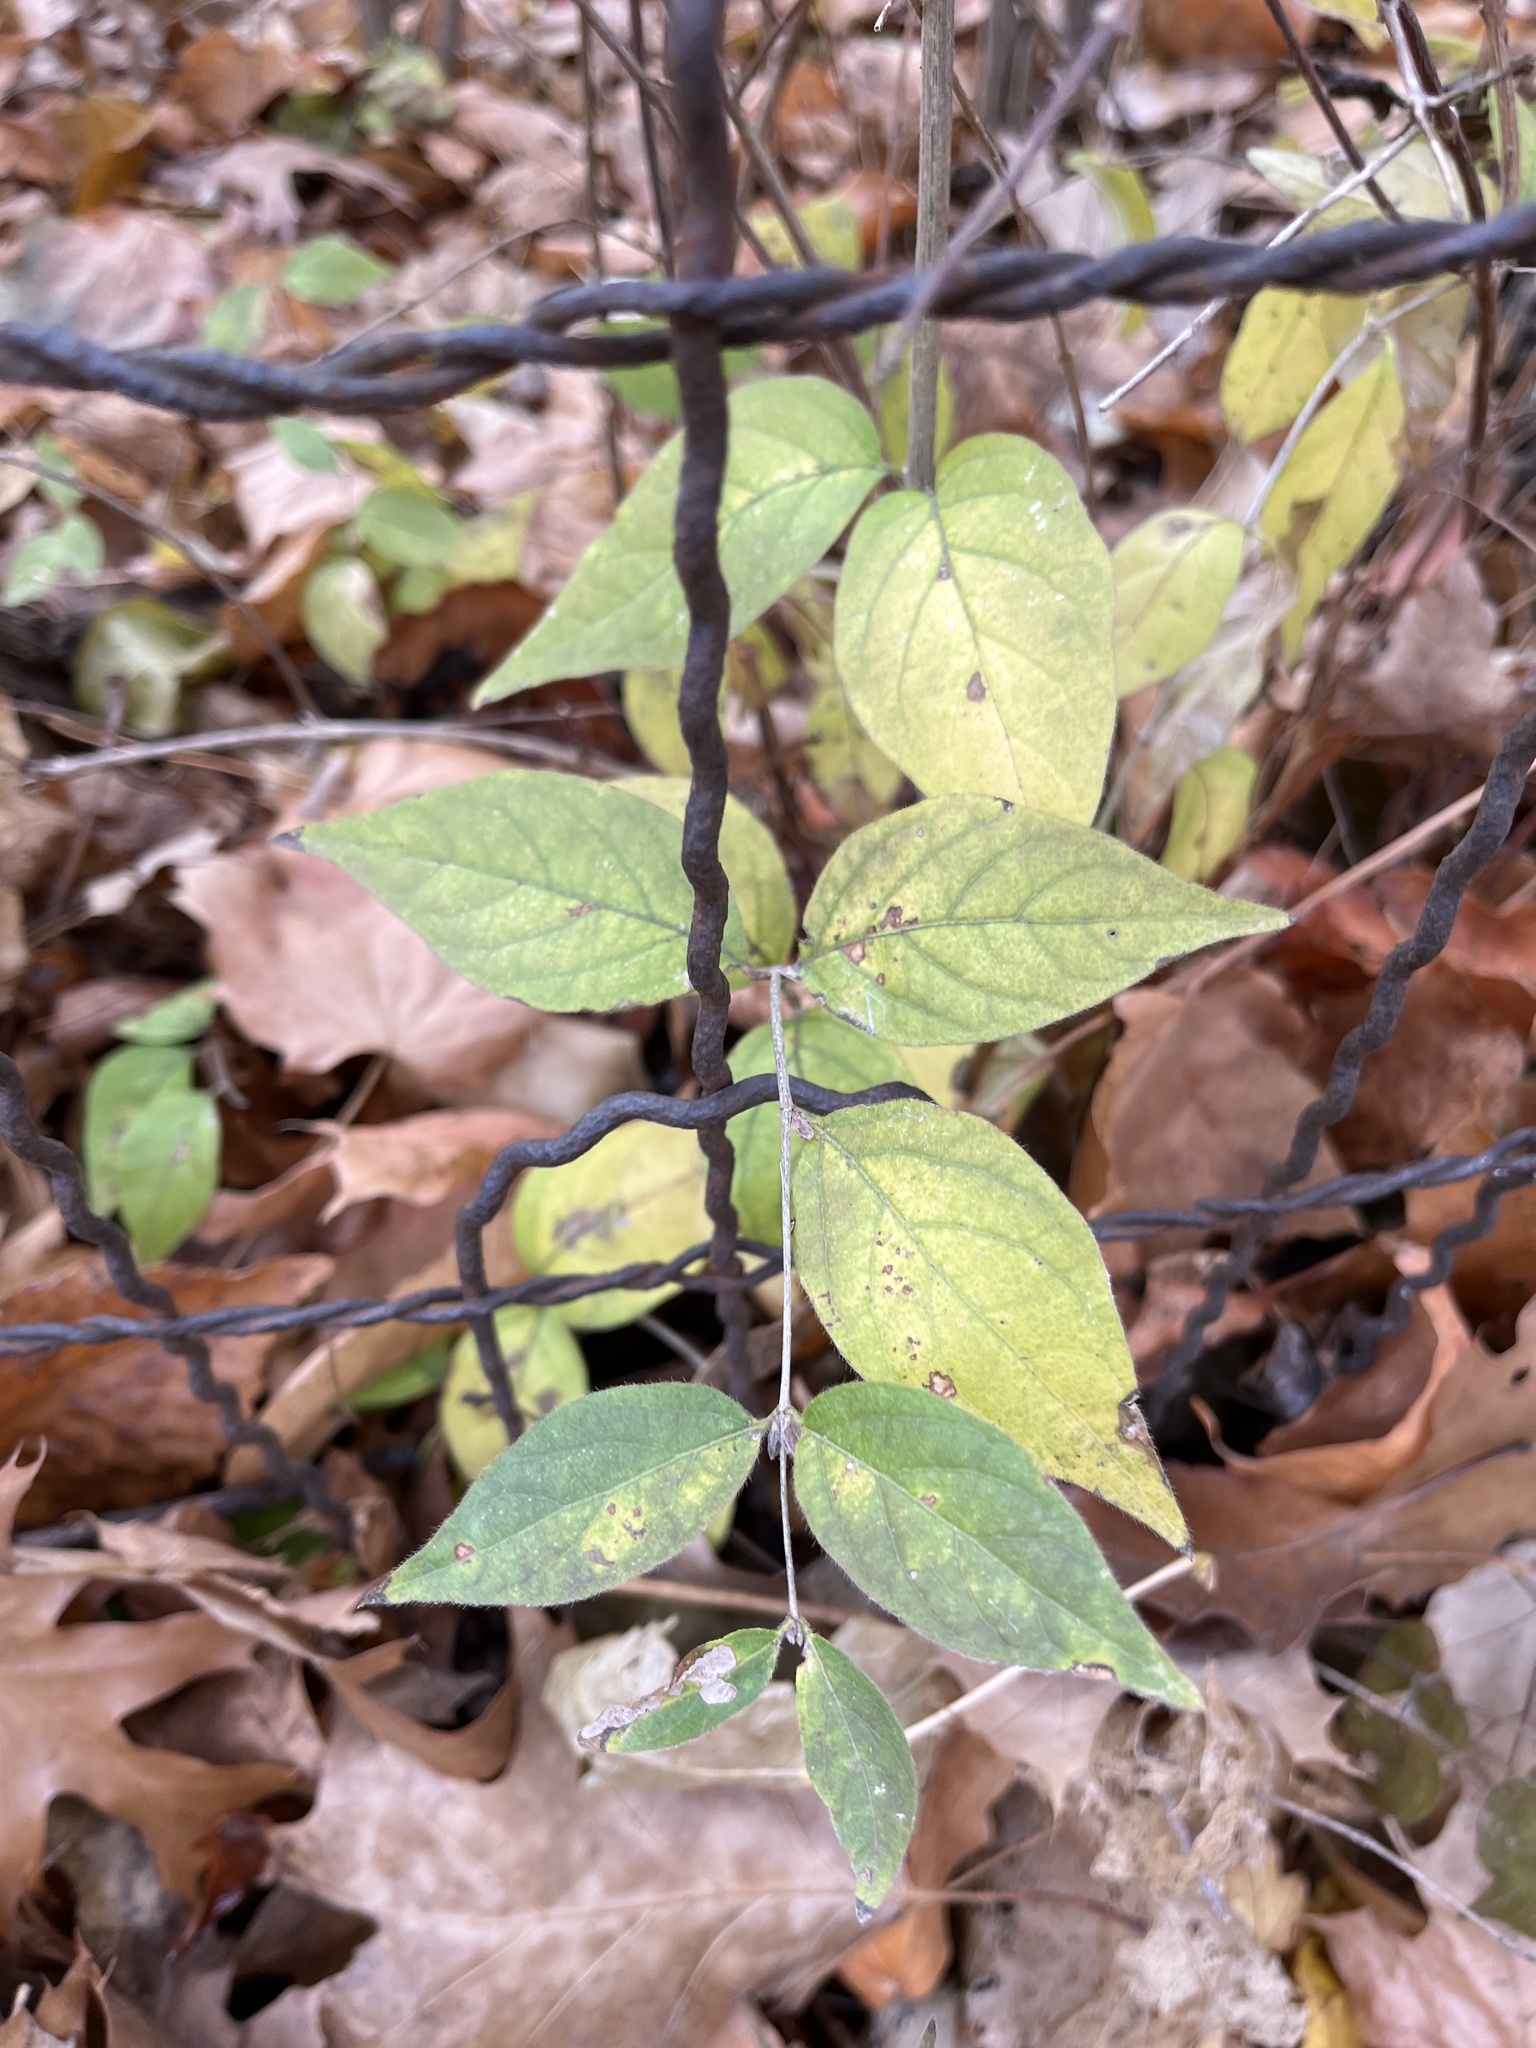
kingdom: Plantae
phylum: Tracheophyta
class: Magnoliopsida
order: Dipsacales
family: Caprifoliaceae
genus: Lonicera
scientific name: Lonicera maackii
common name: Amur honeysuckle
